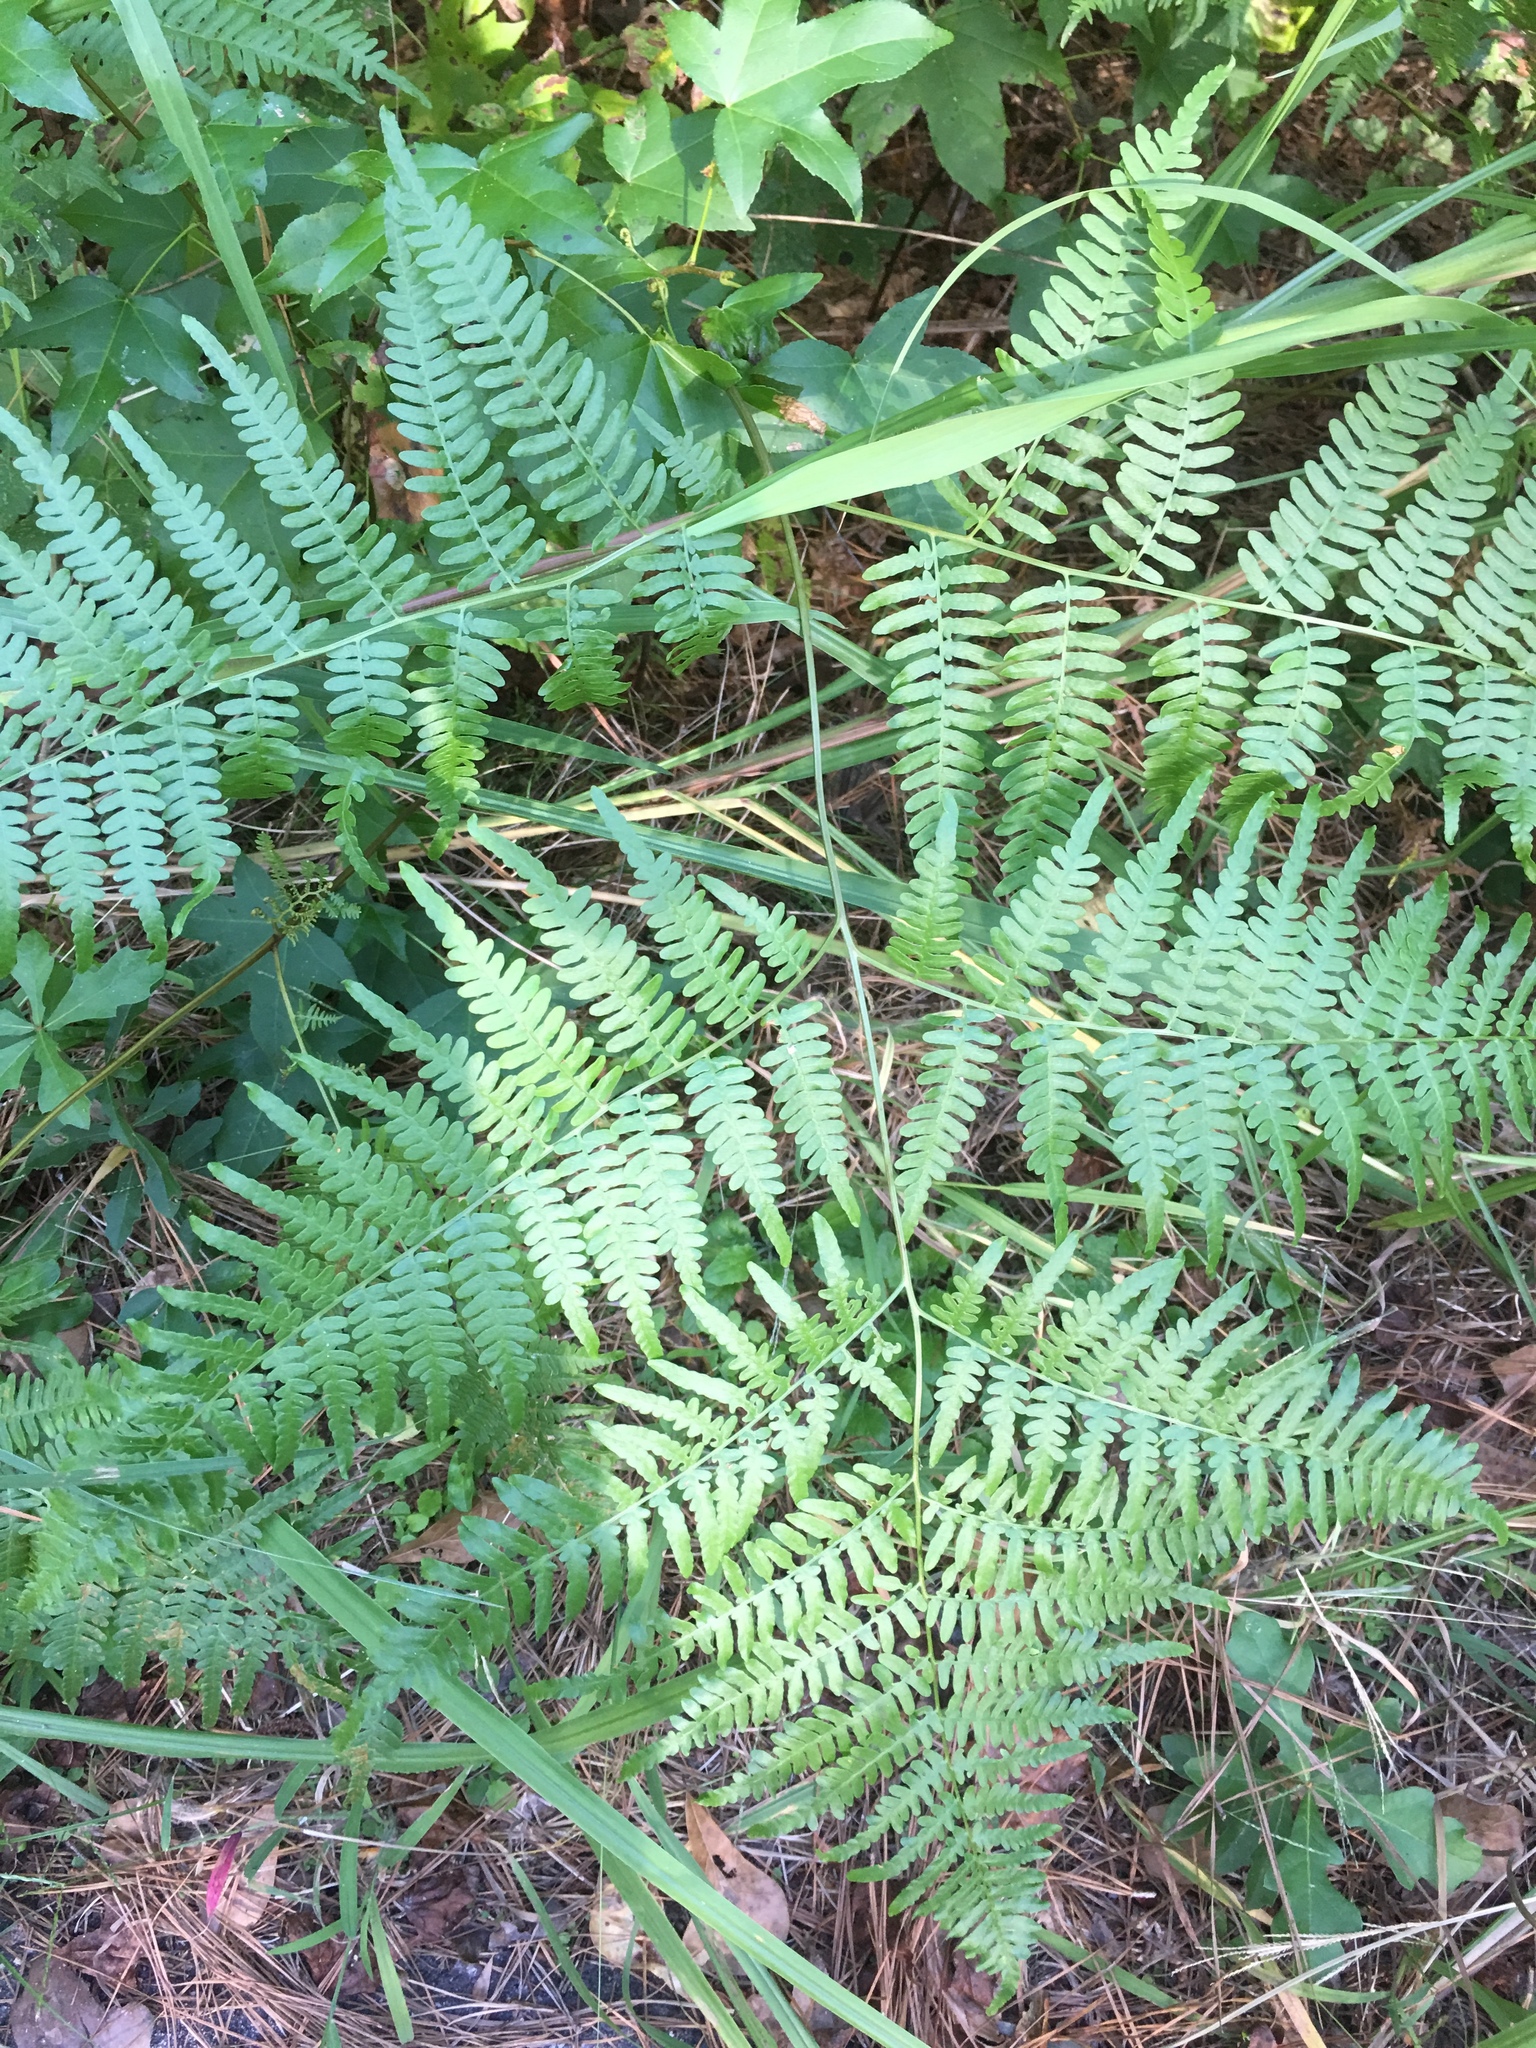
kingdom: Plantae
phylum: Tracheophyta
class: Polypodiopsida
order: Polypodiales
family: Dennstaedtiaceae
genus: Pteridium
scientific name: Pteridium aquilinum
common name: Bracken
